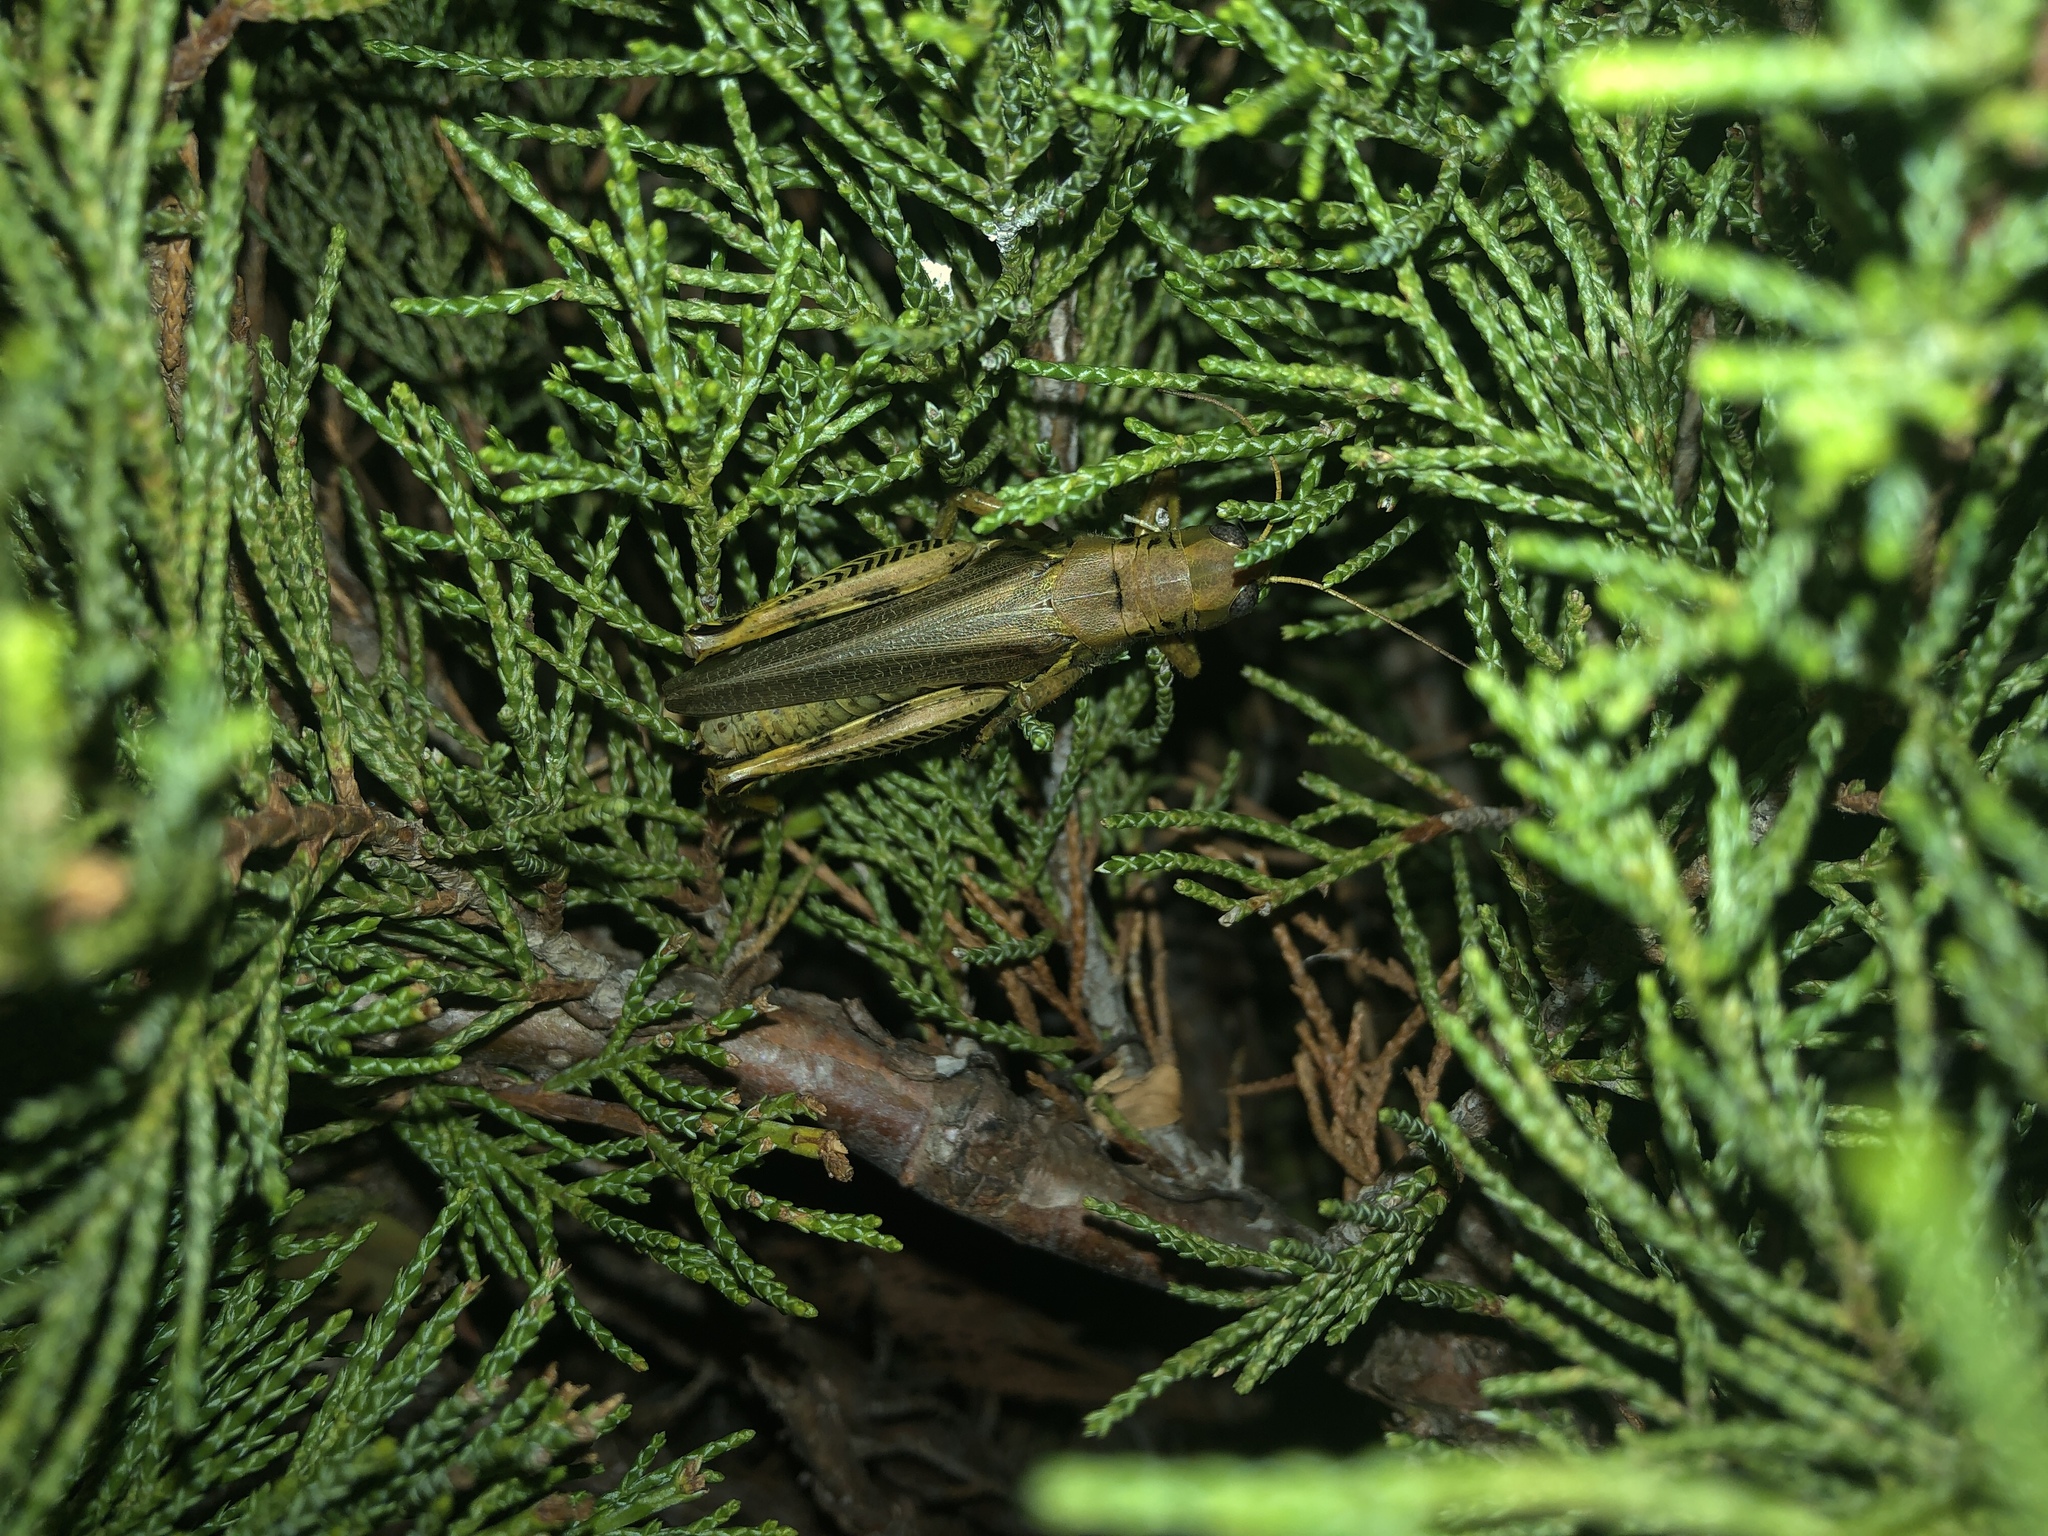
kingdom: Animalia
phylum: Arthropoda
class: Insecta
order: Orthoptera
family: Acrididae
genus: Melanoplus
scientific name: Melanoplus differentialis
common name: Differential grasshopper
